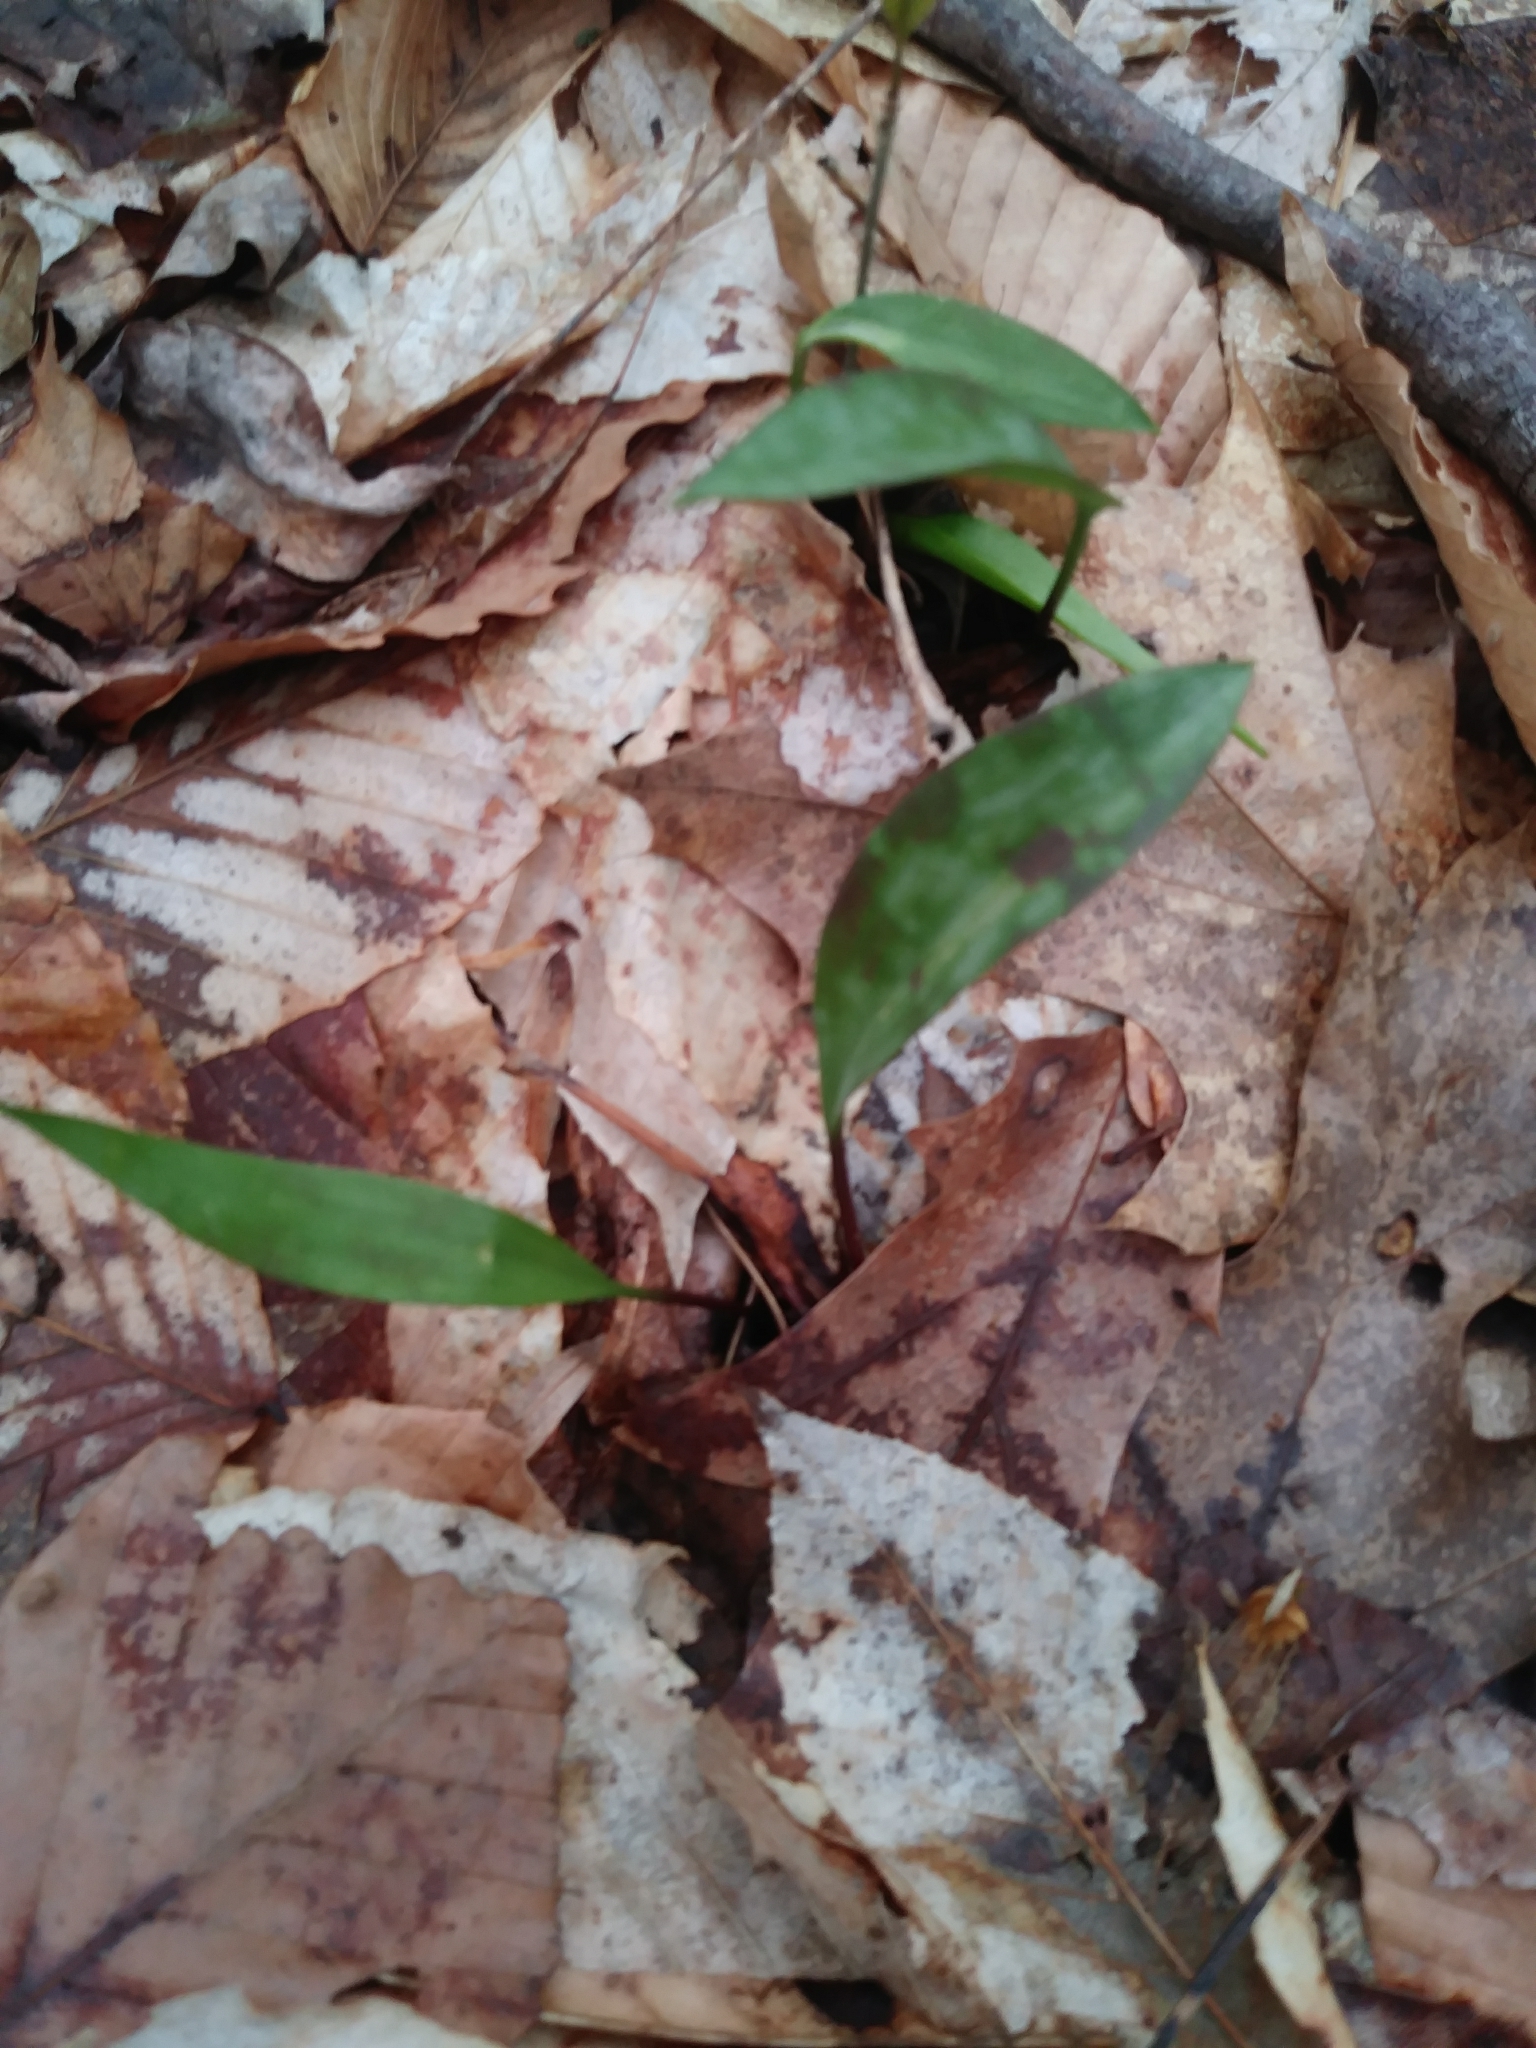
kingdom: Plantae
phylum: Tracheophyta
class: Liliopsida
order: Liliales
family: Liliaceae
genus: Erythronium
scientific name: Erythronium americanum
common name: Yellow adder's-tongue
